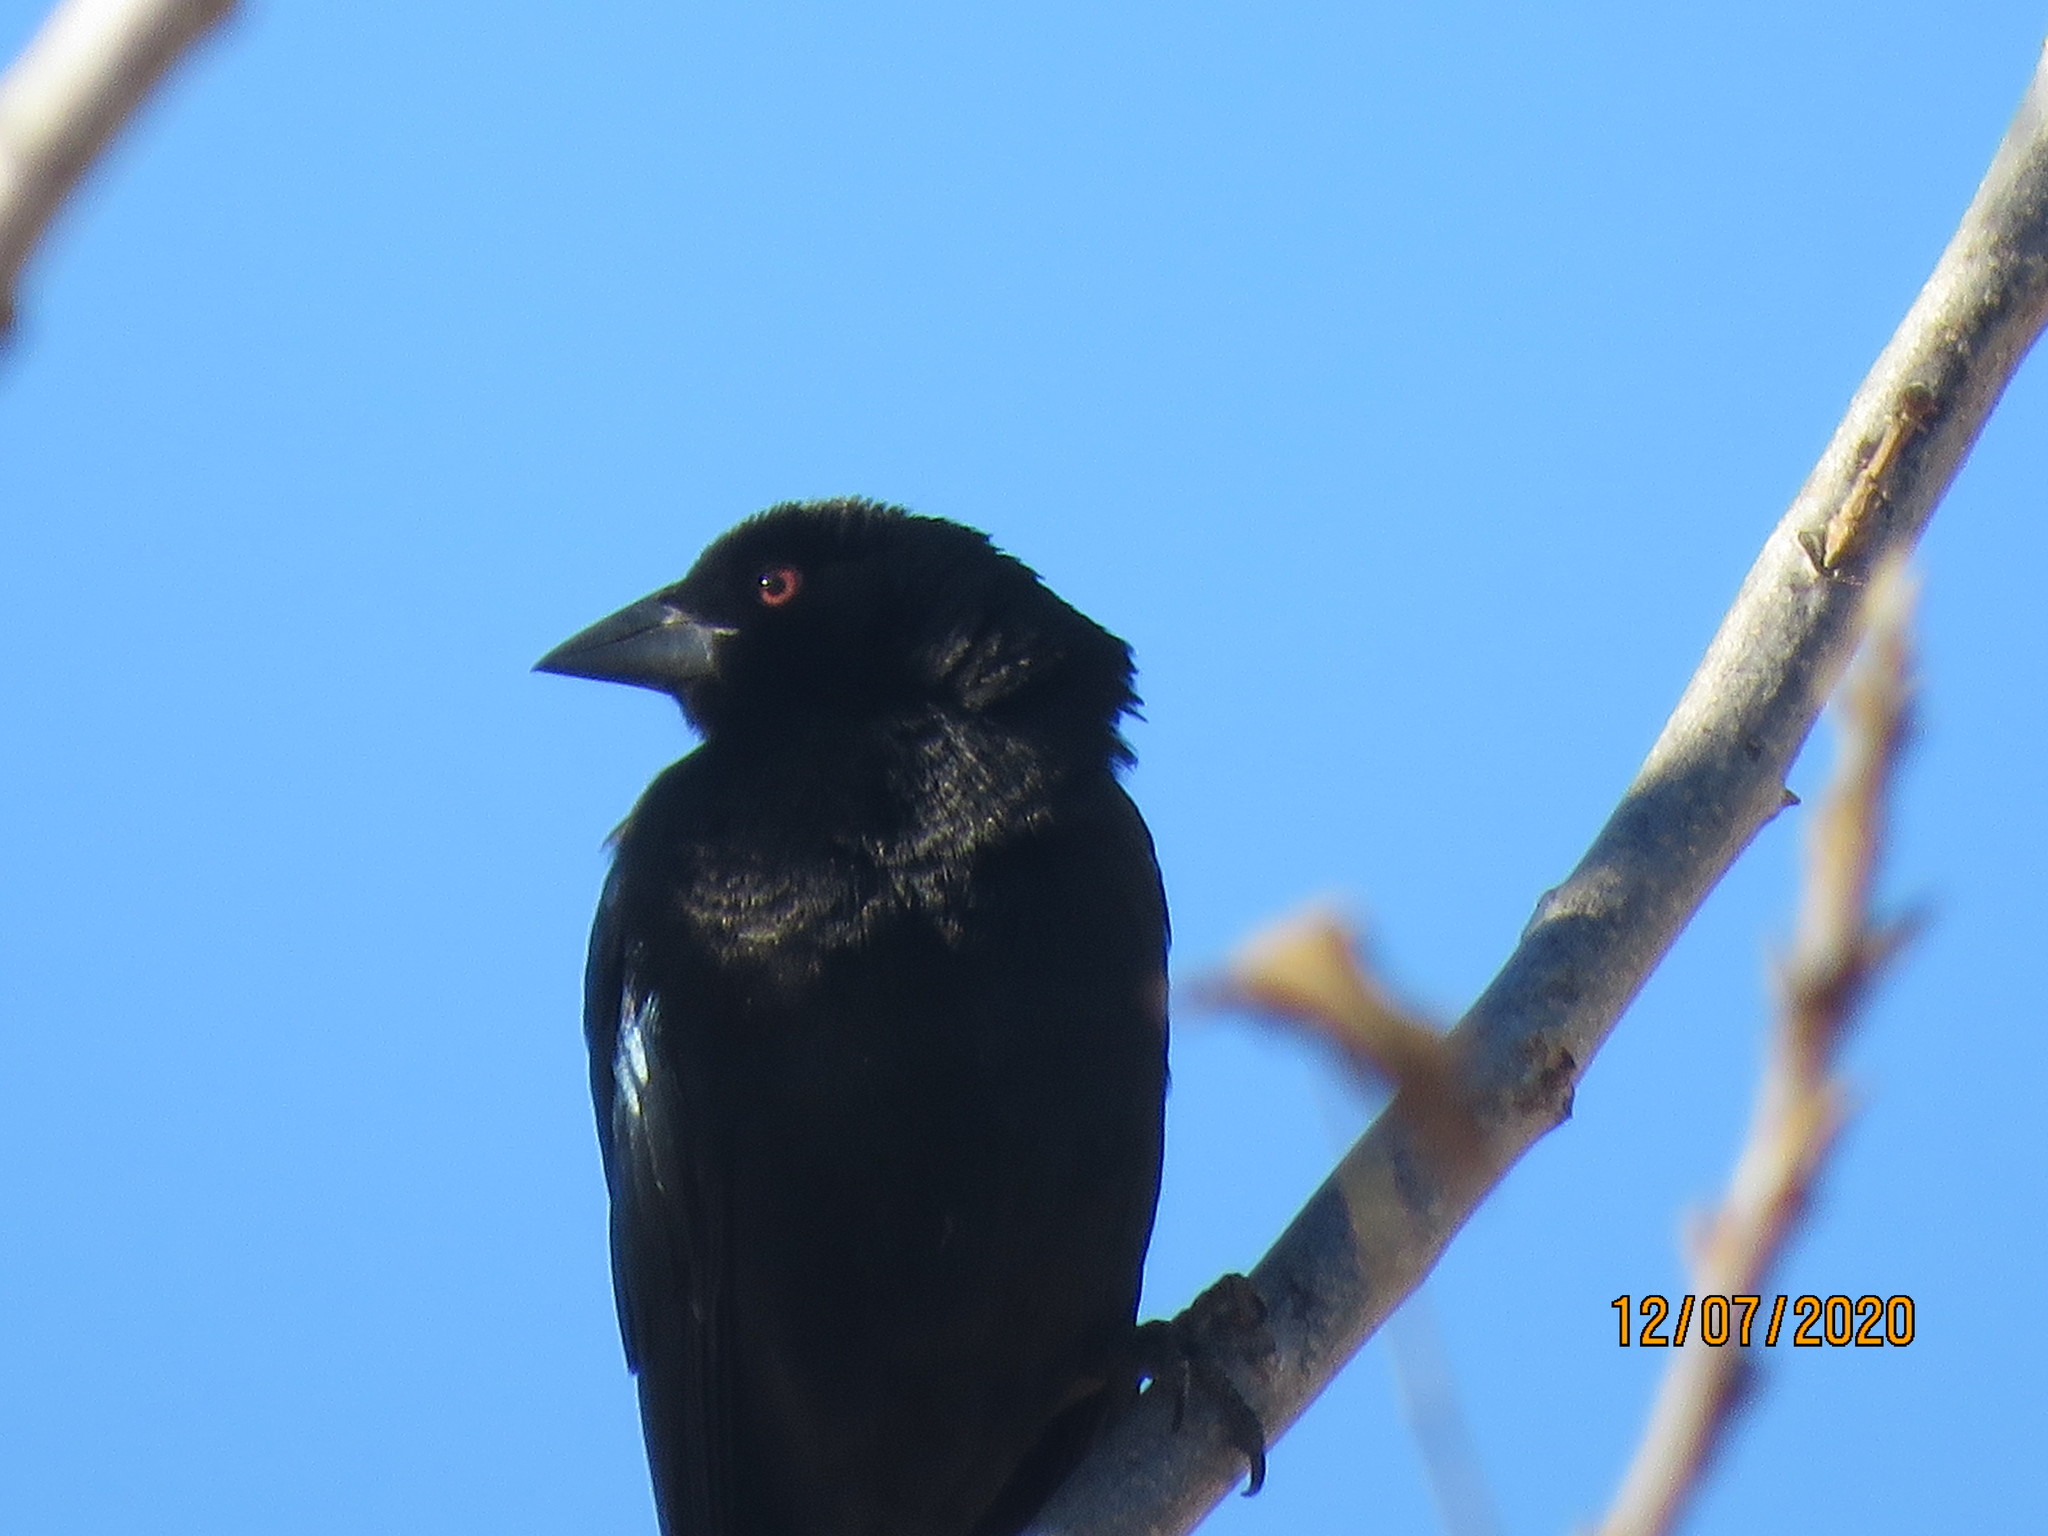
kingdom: Animalia
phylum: Chordata
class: Aves
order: Passeriformes
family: Icteridae
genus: Molothrus
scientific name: Molothrus aeneus
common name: Bronzed cowbird
